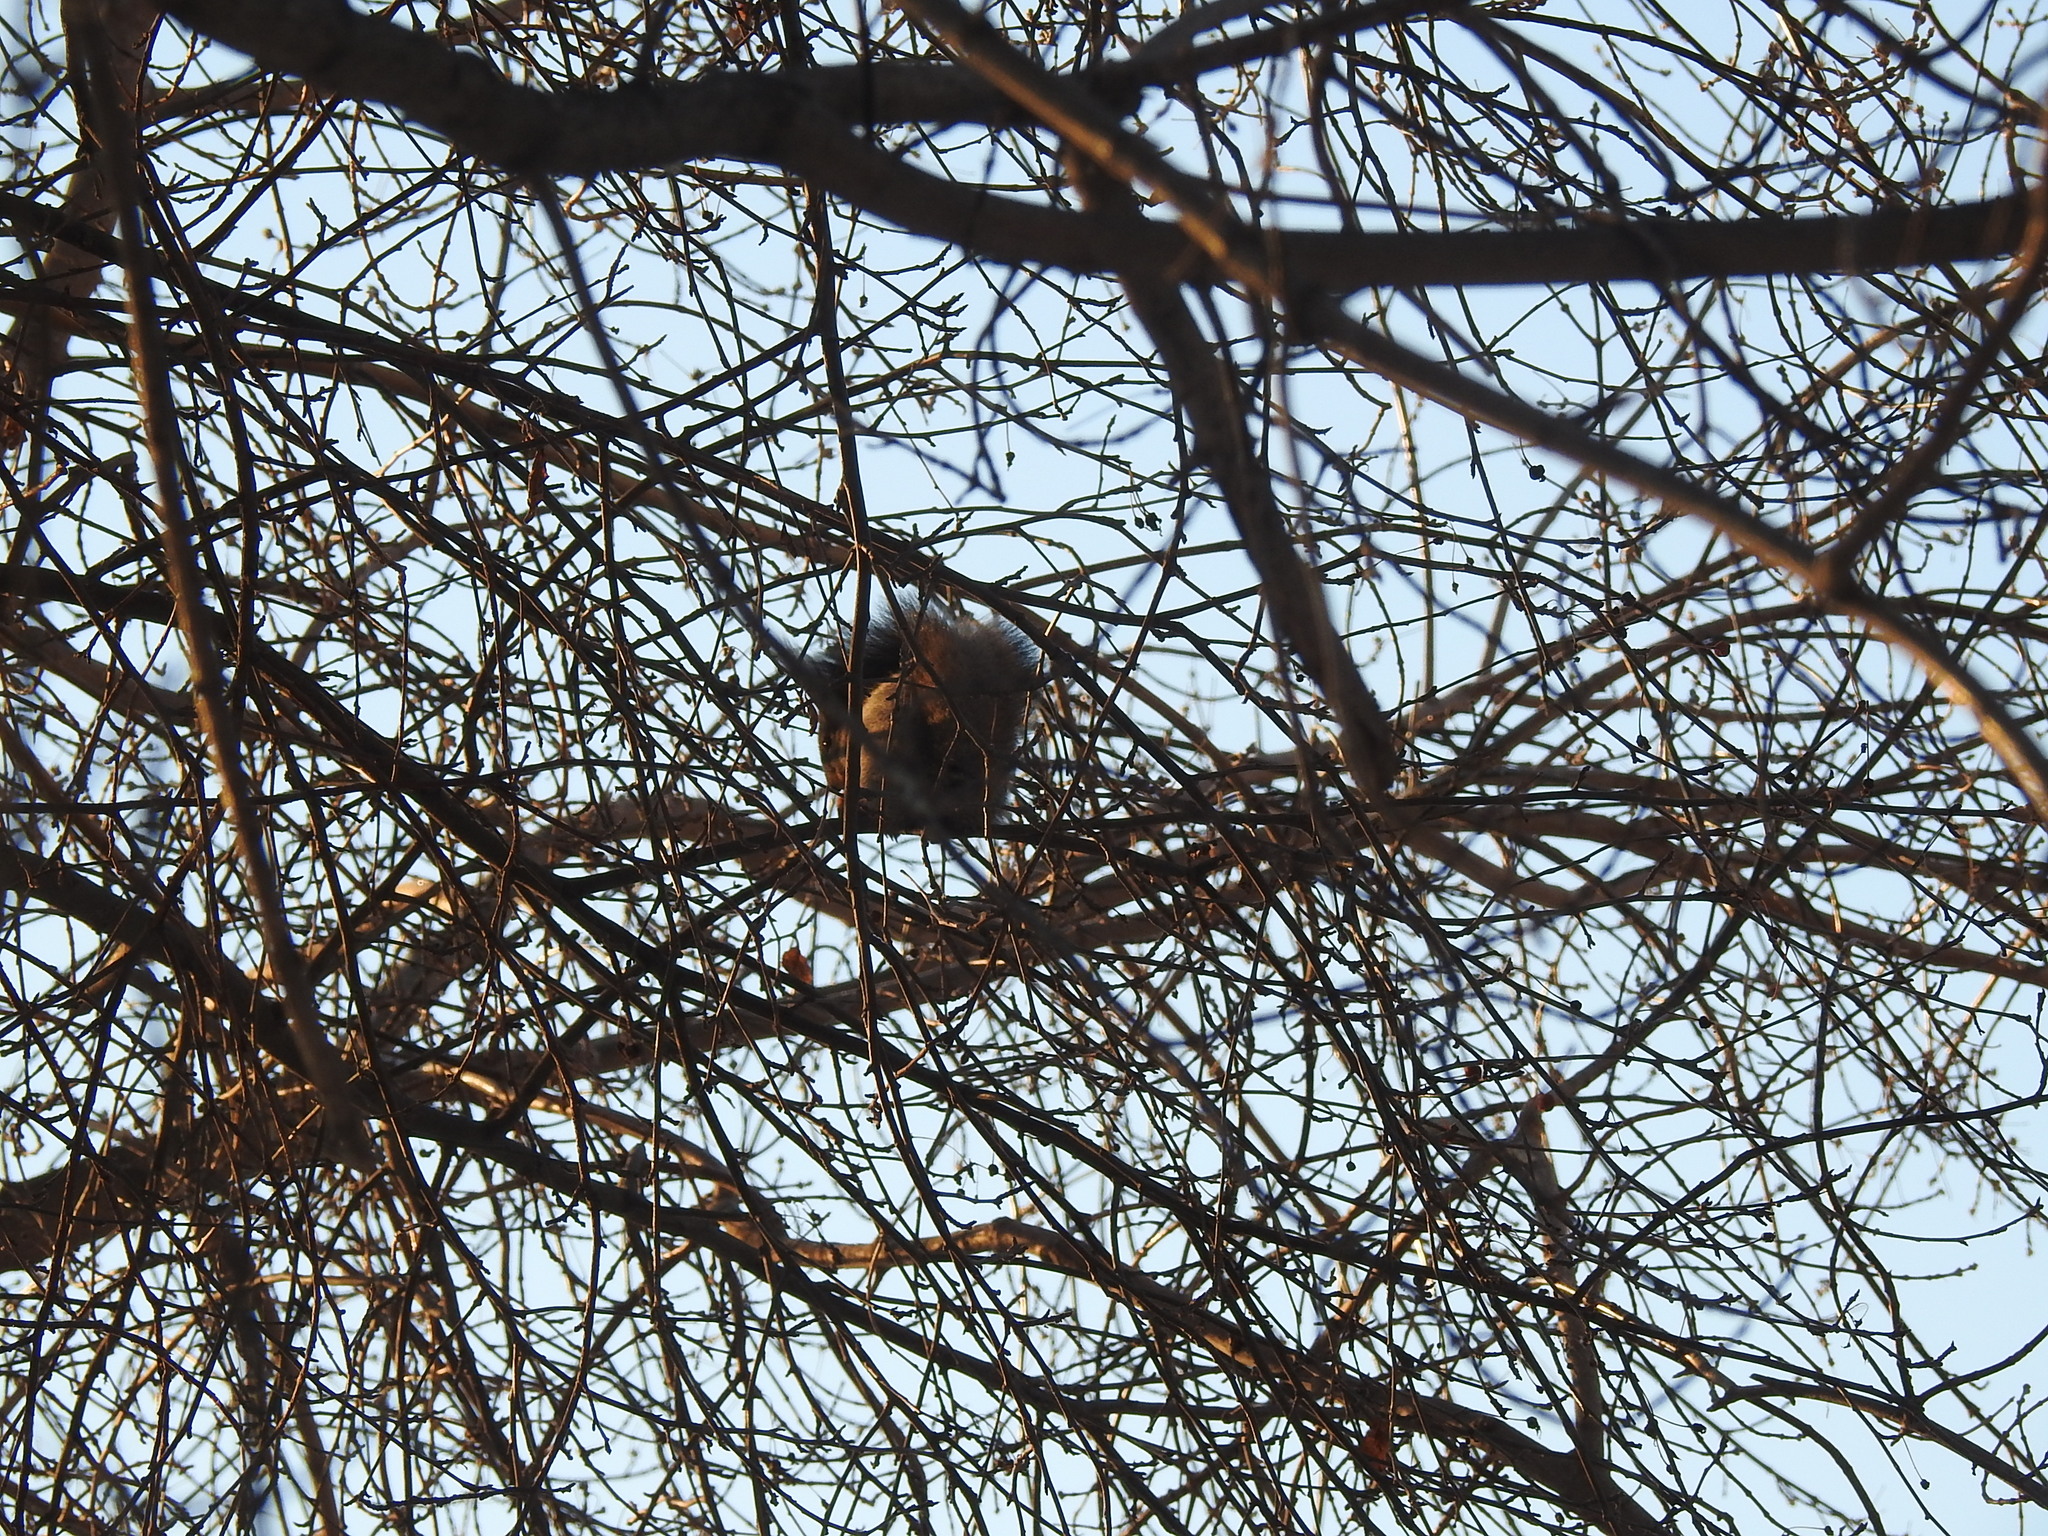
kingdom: Animalia
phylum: Chordata
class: Mammalia
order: Rodentia
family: Sciuridae
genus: Sciurus
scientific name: Sciurus vulgaris
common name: Eurasian red squirrel
